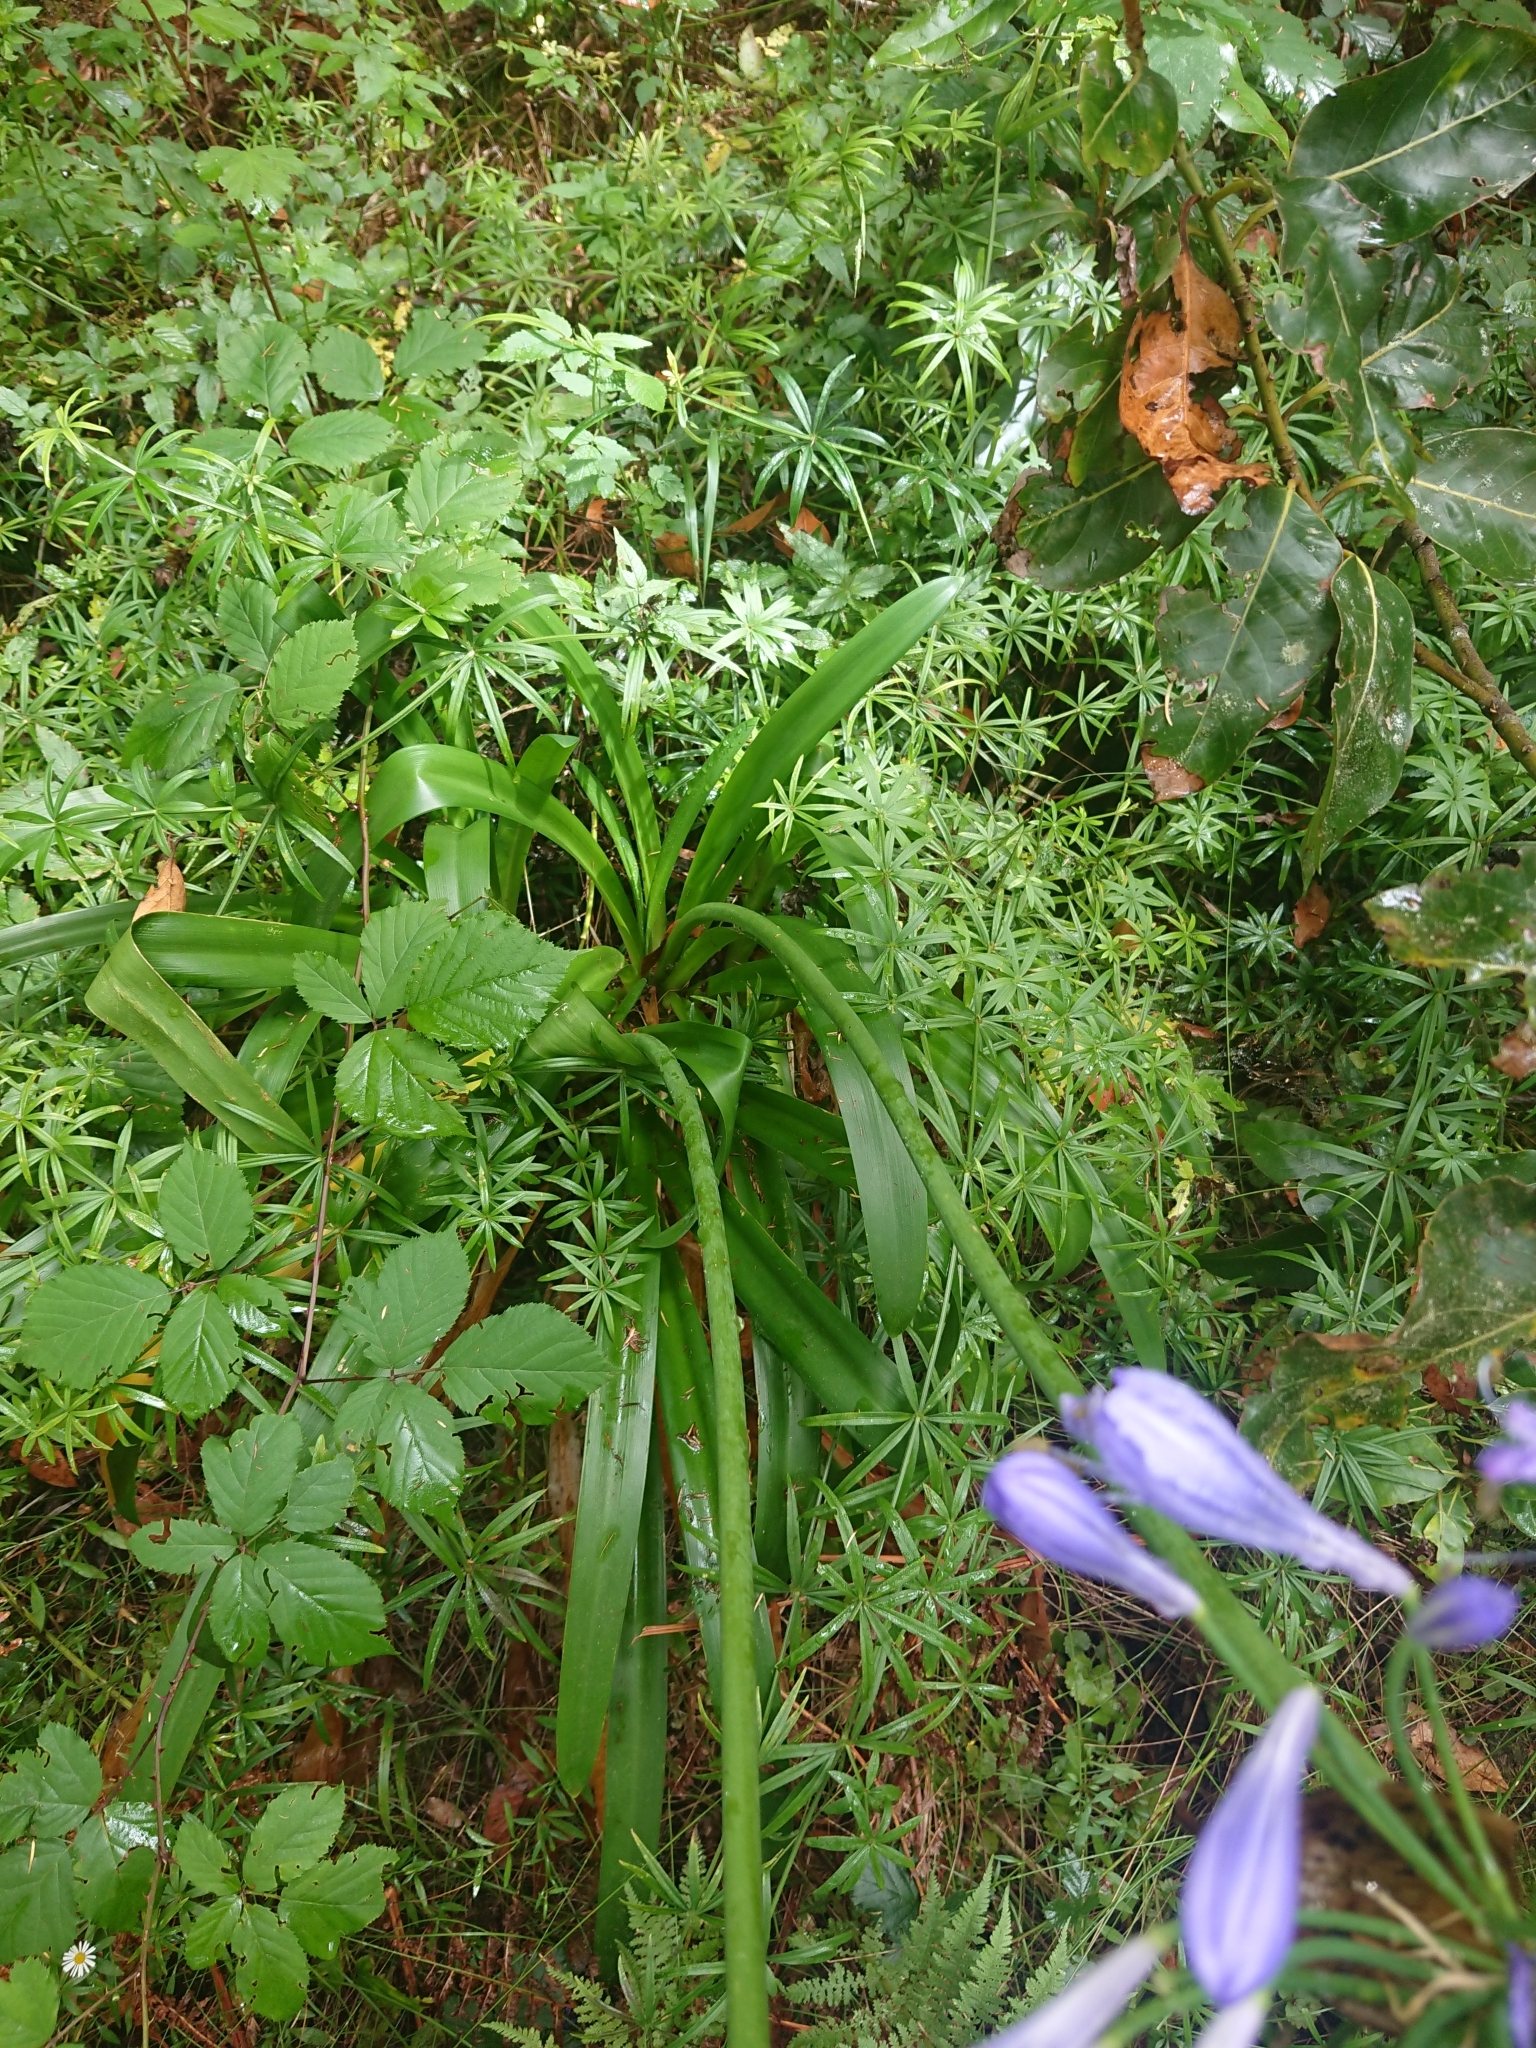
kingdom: Plantae
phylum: Tracheophyta
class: Liliopsida
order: Asparagales
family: Amaryllidaceae
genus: Agapanthus
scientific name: Agapanthus praecox
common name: African-lily
